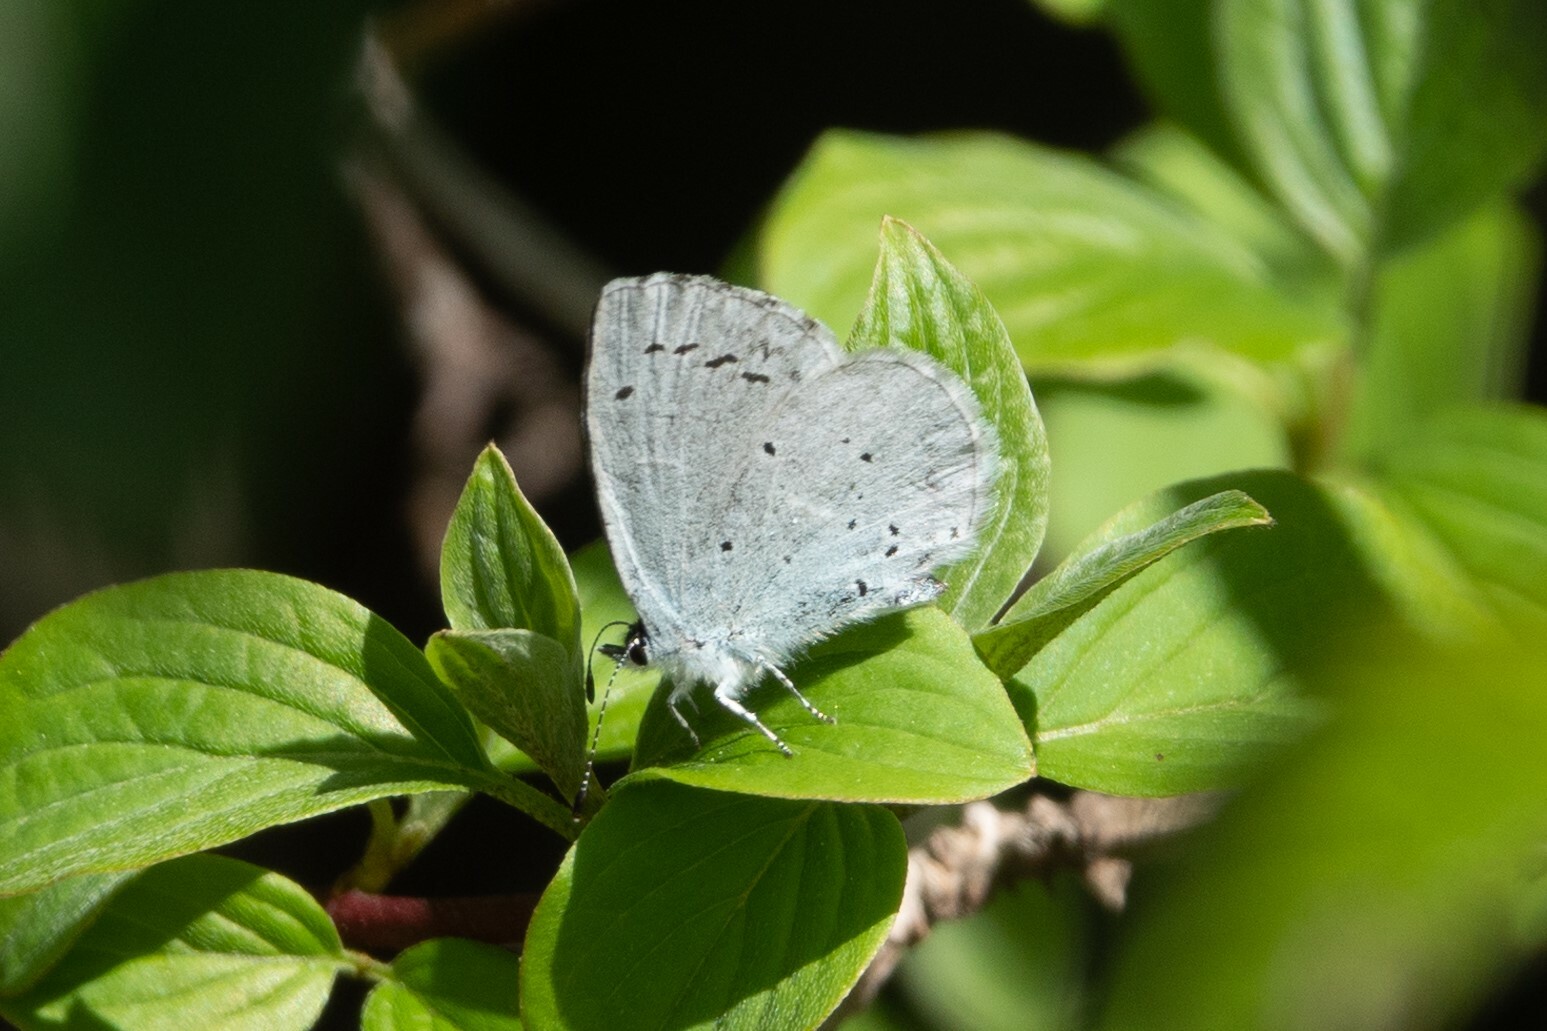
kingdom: Animalia
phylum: Arthropoda
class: Insecta
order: Lepidoptera
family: Lycaenidae
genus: Celastrina
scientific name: Celastrina argiolus
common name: Holly blue
